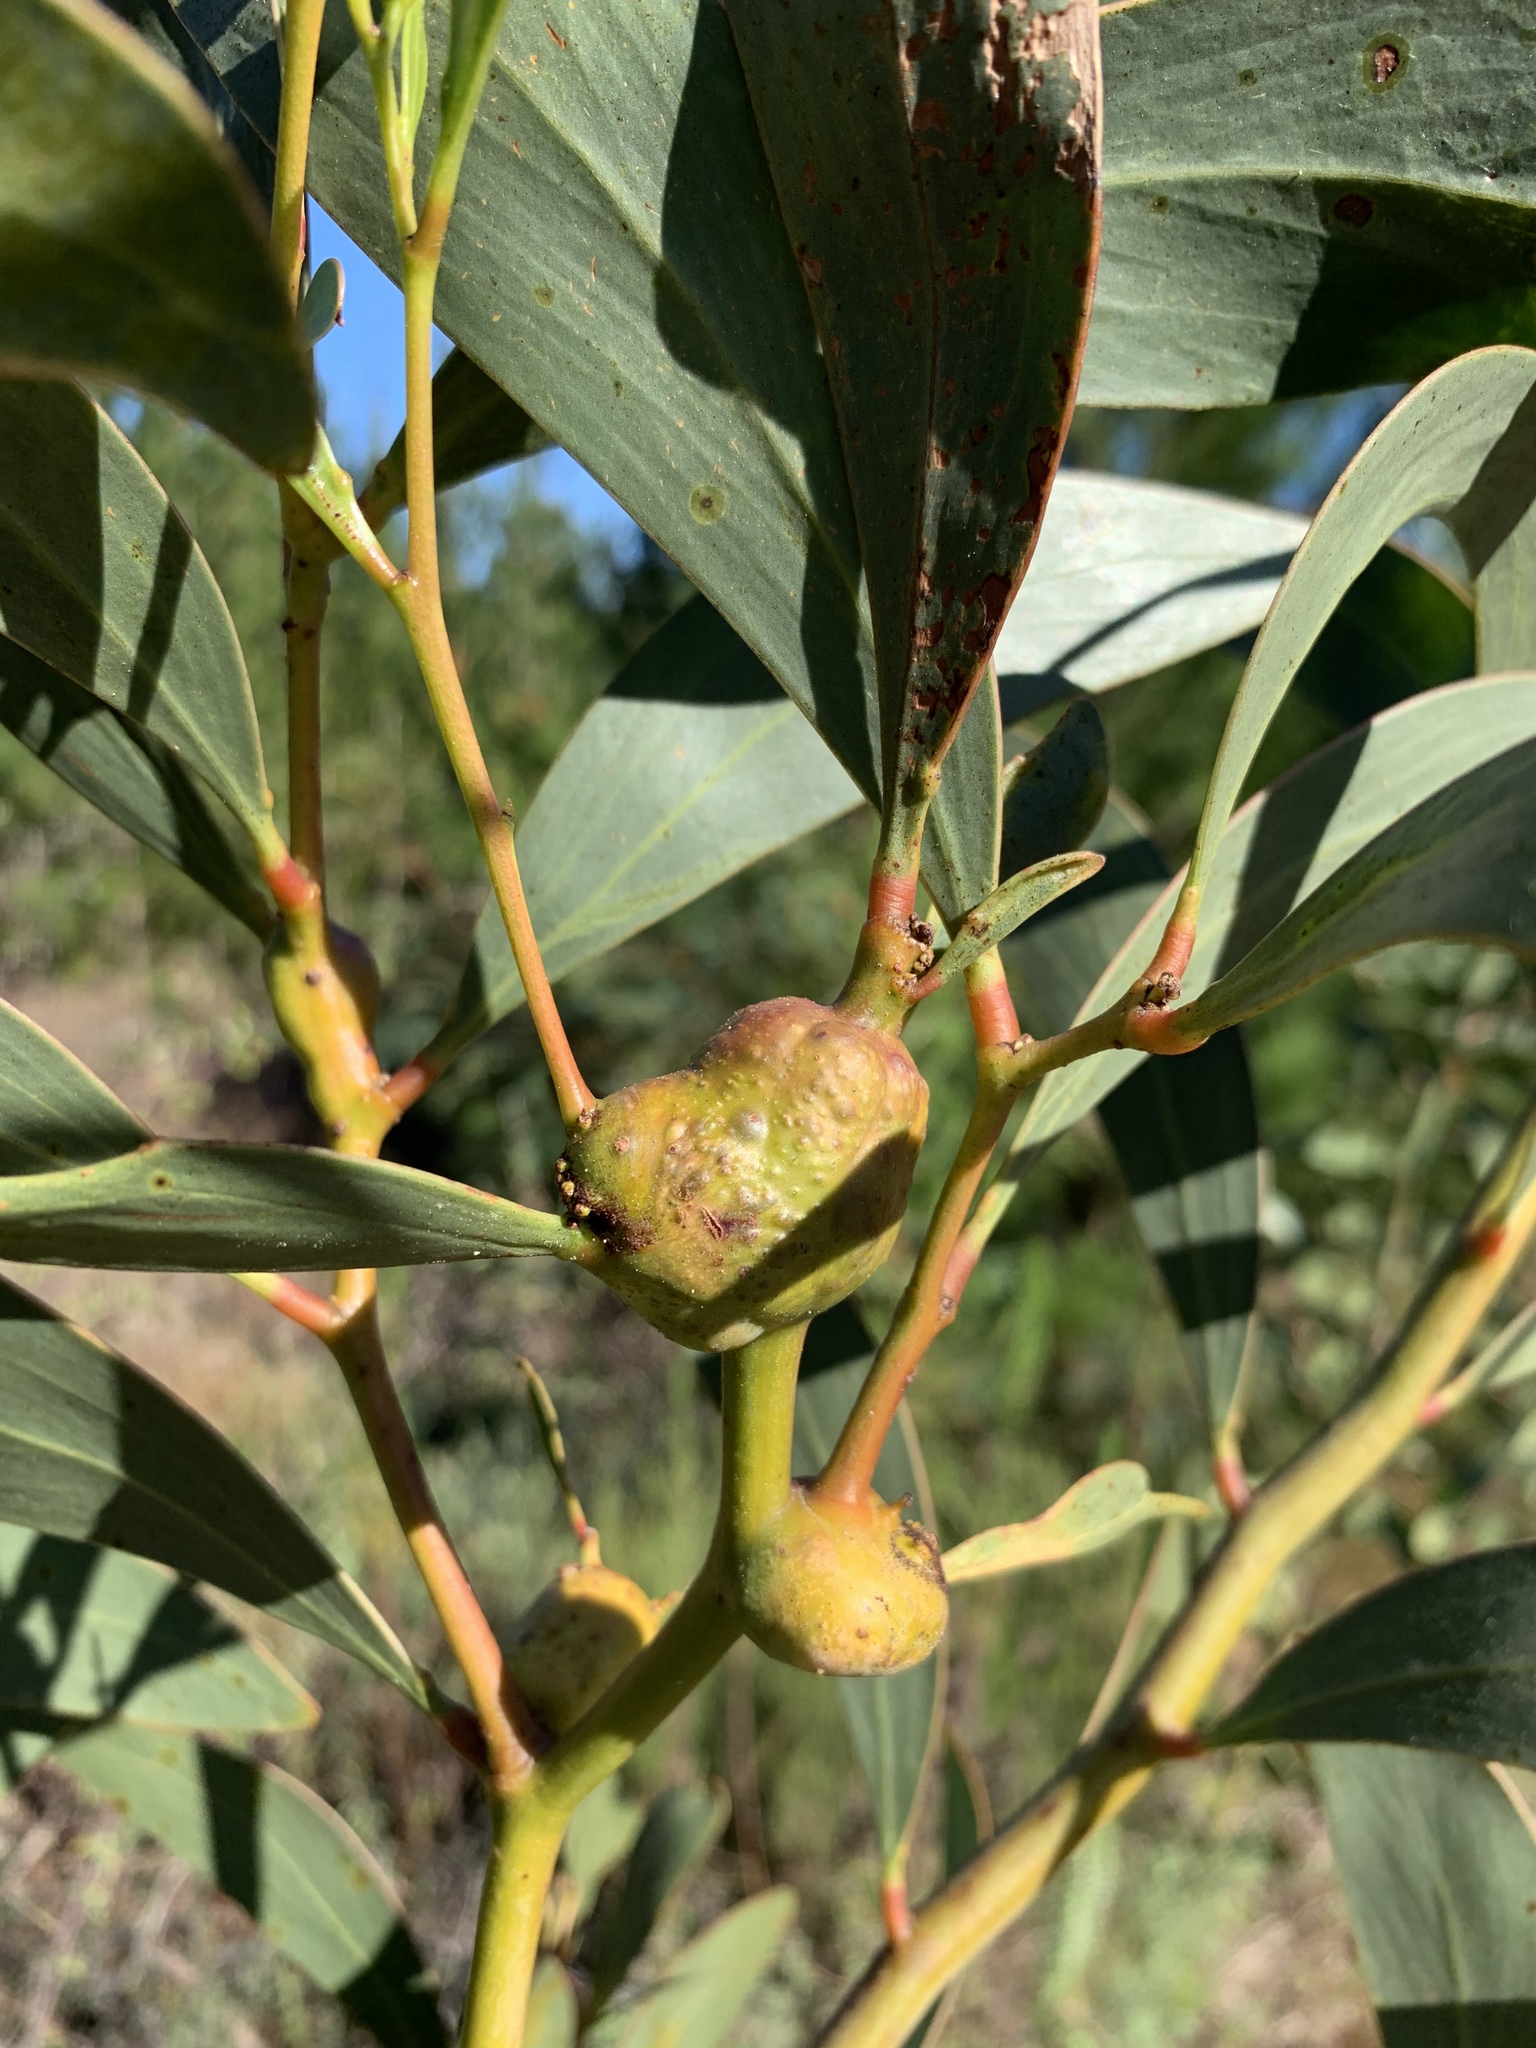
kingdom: Animalia
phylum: Arthropoda
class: Insecta
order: Hymenoptera
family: Pteromalidae
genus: Trichilogaster
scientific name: Trichilogaster signiventris
